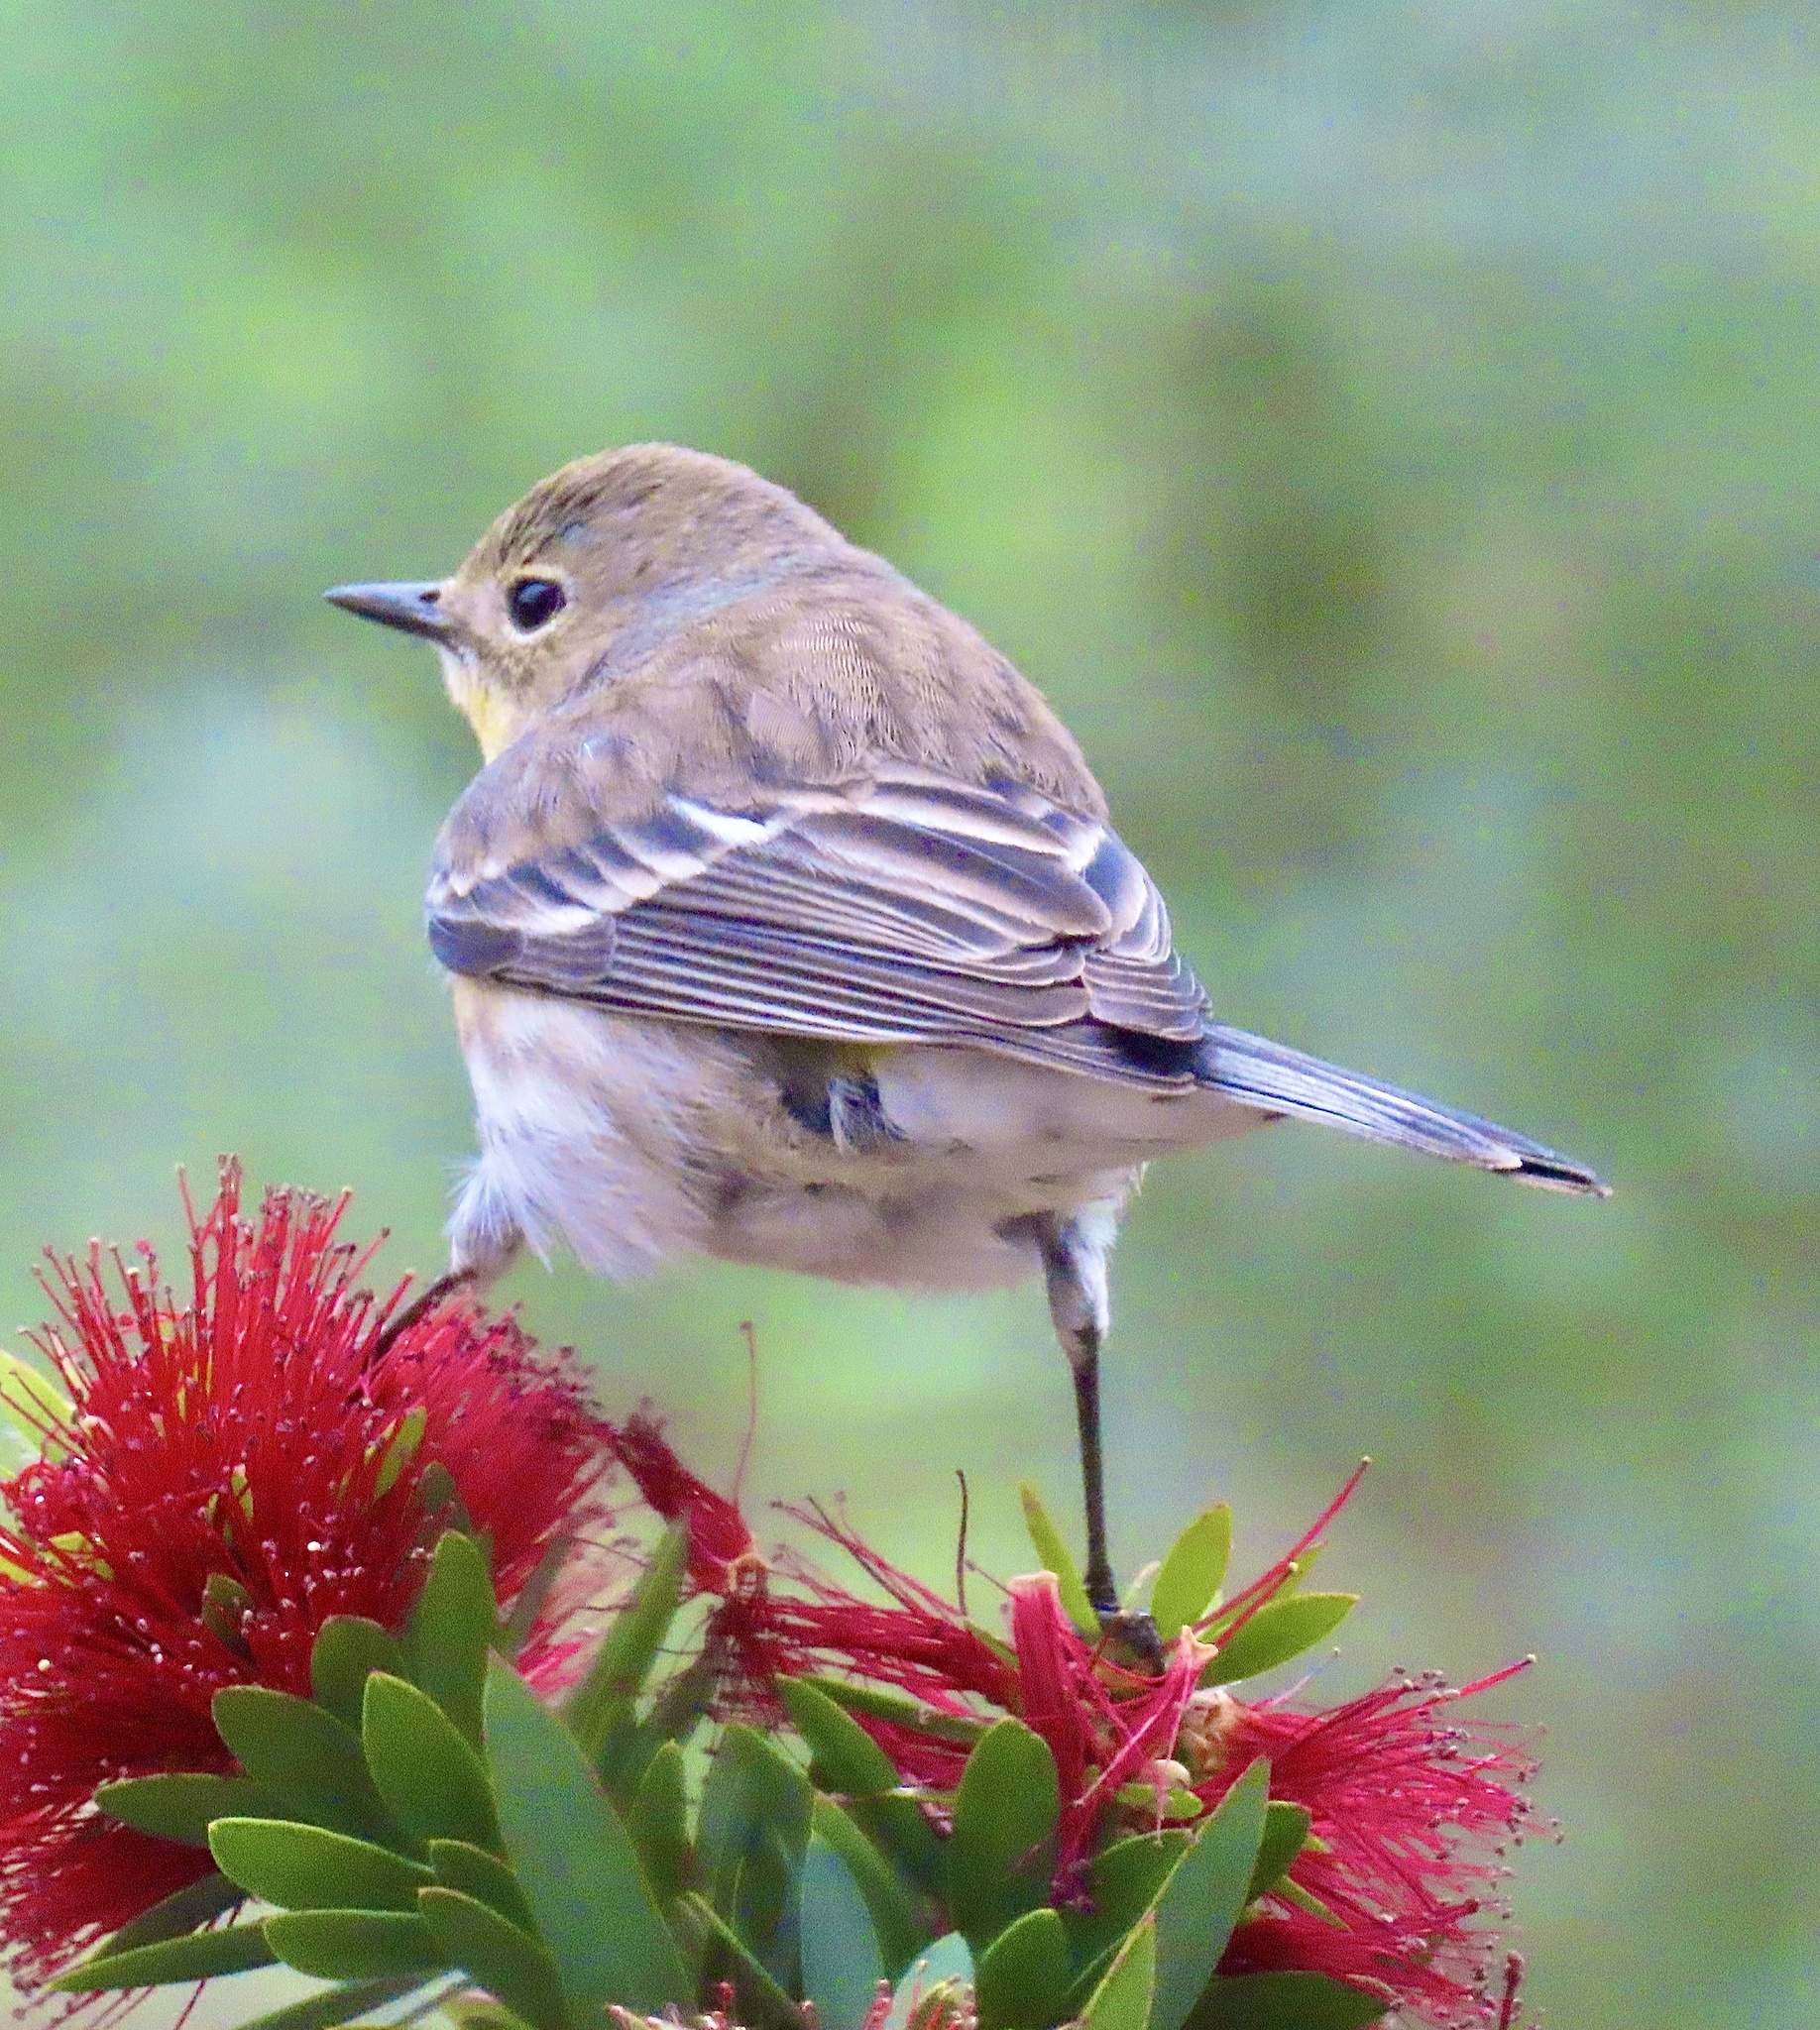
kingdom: Animalia
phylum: Chordata
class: Aves
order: Passeriformes
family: Parulidae
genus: Setophaga
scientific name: Setophaga coronata
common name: Myrtle warbler
